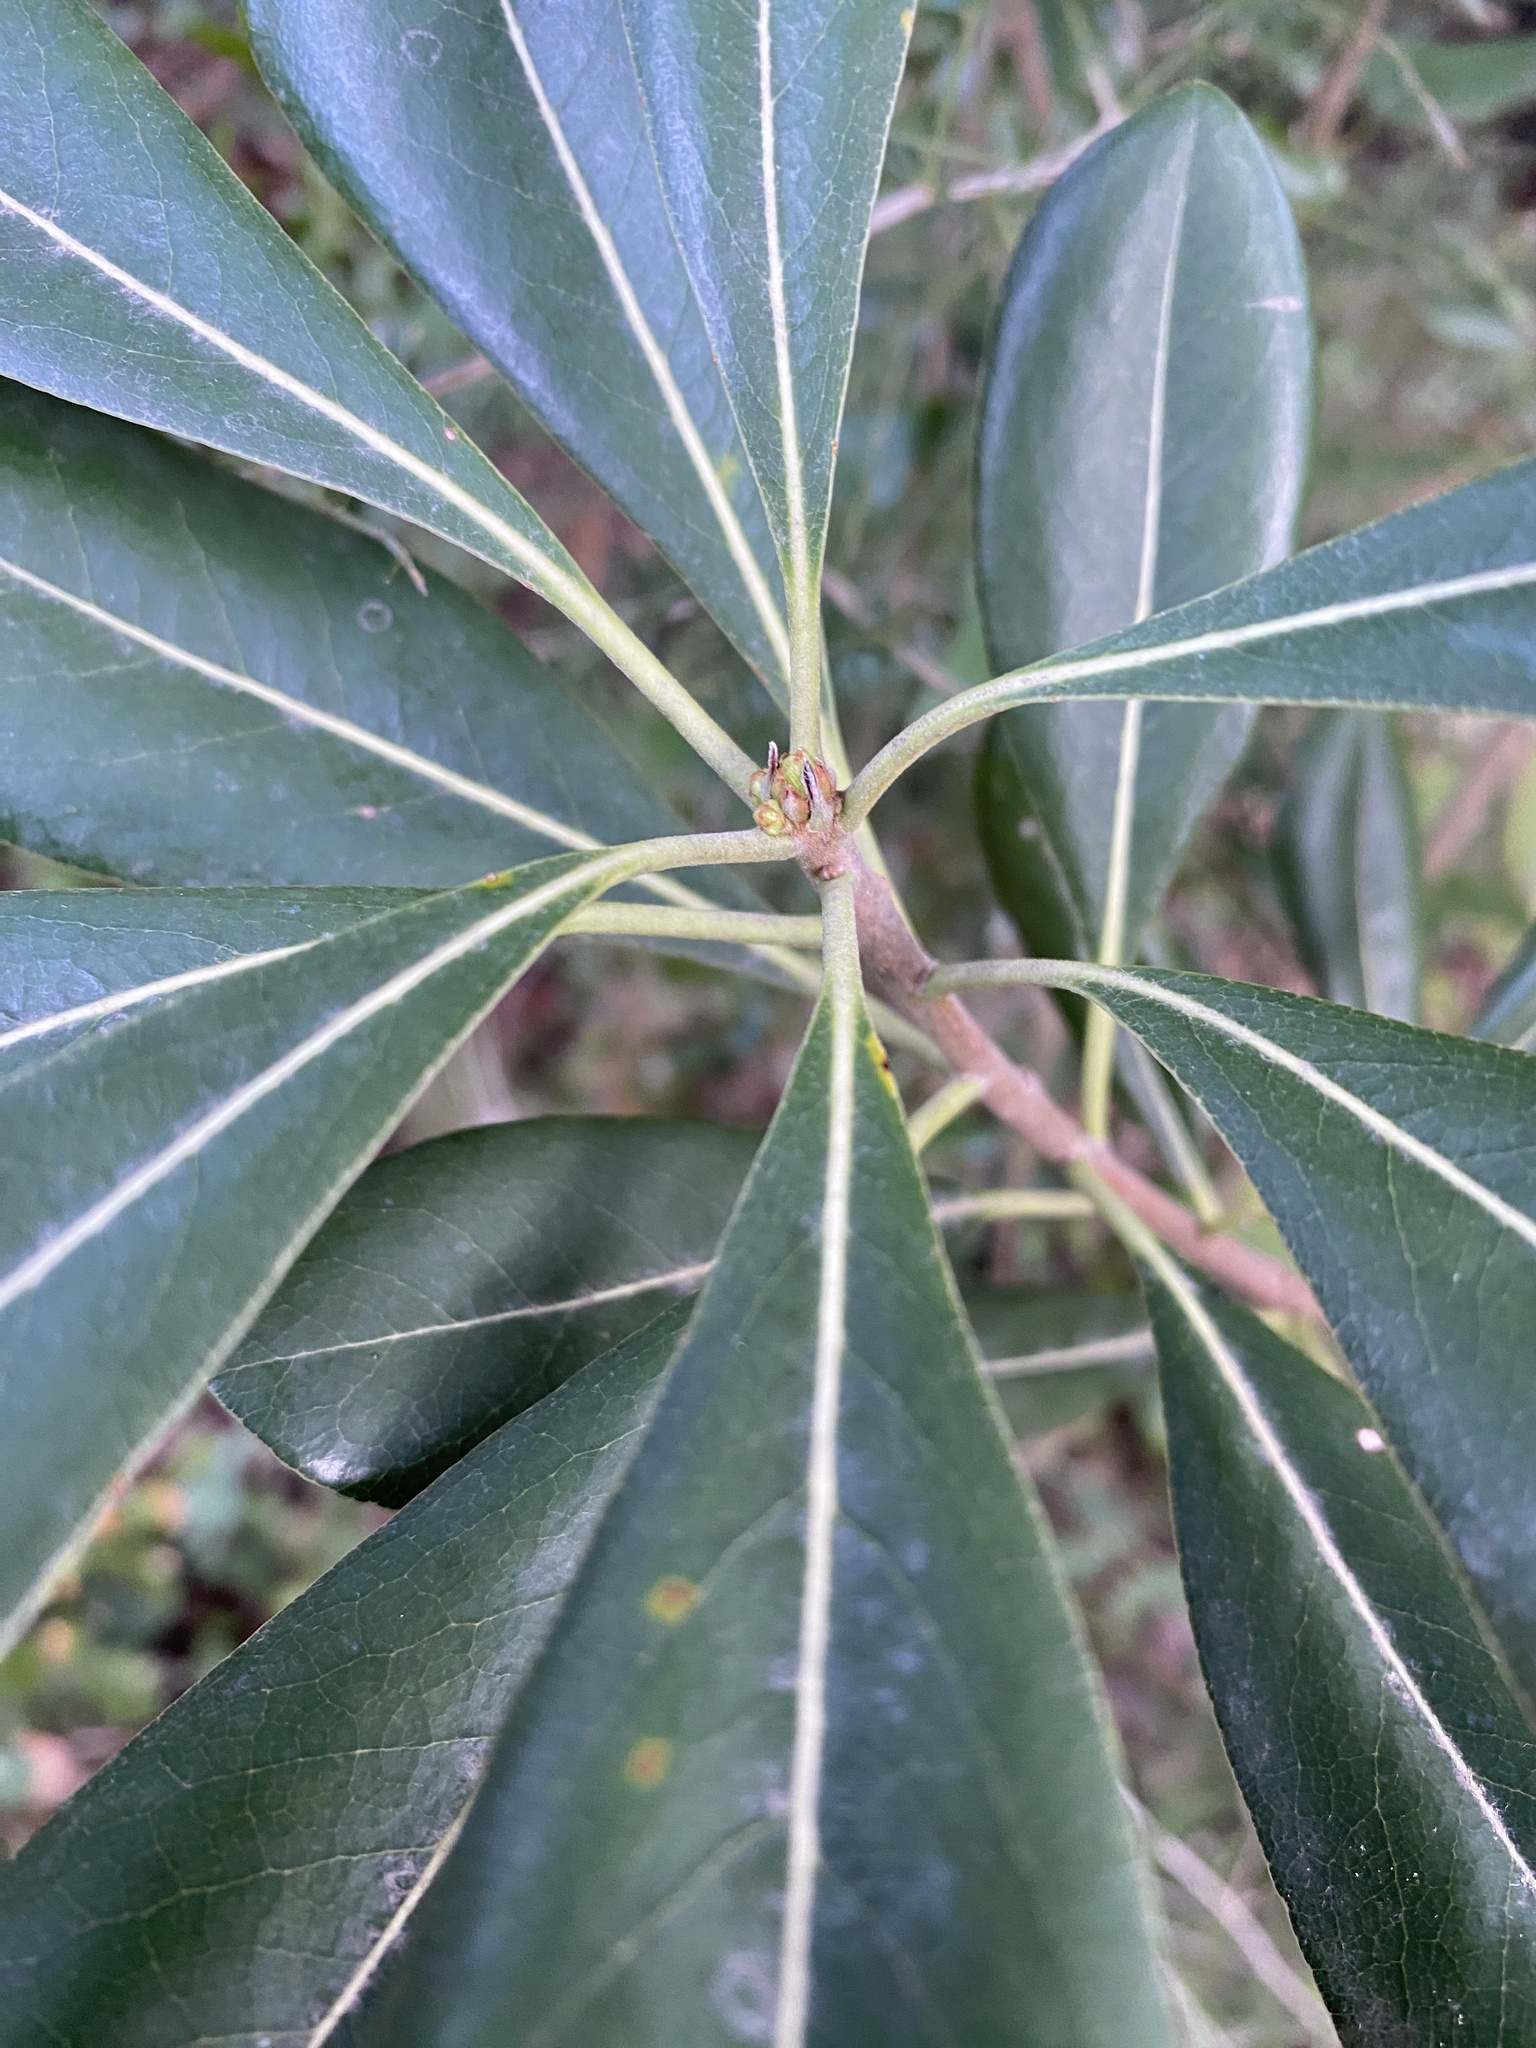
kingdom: Plantae
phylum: Tracheophyta
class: Magnoliopsida
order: Apiales
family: Pittosporaceae
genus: Pittosporum
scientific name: Pittosporum tobira
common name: Japanese cheesewood
